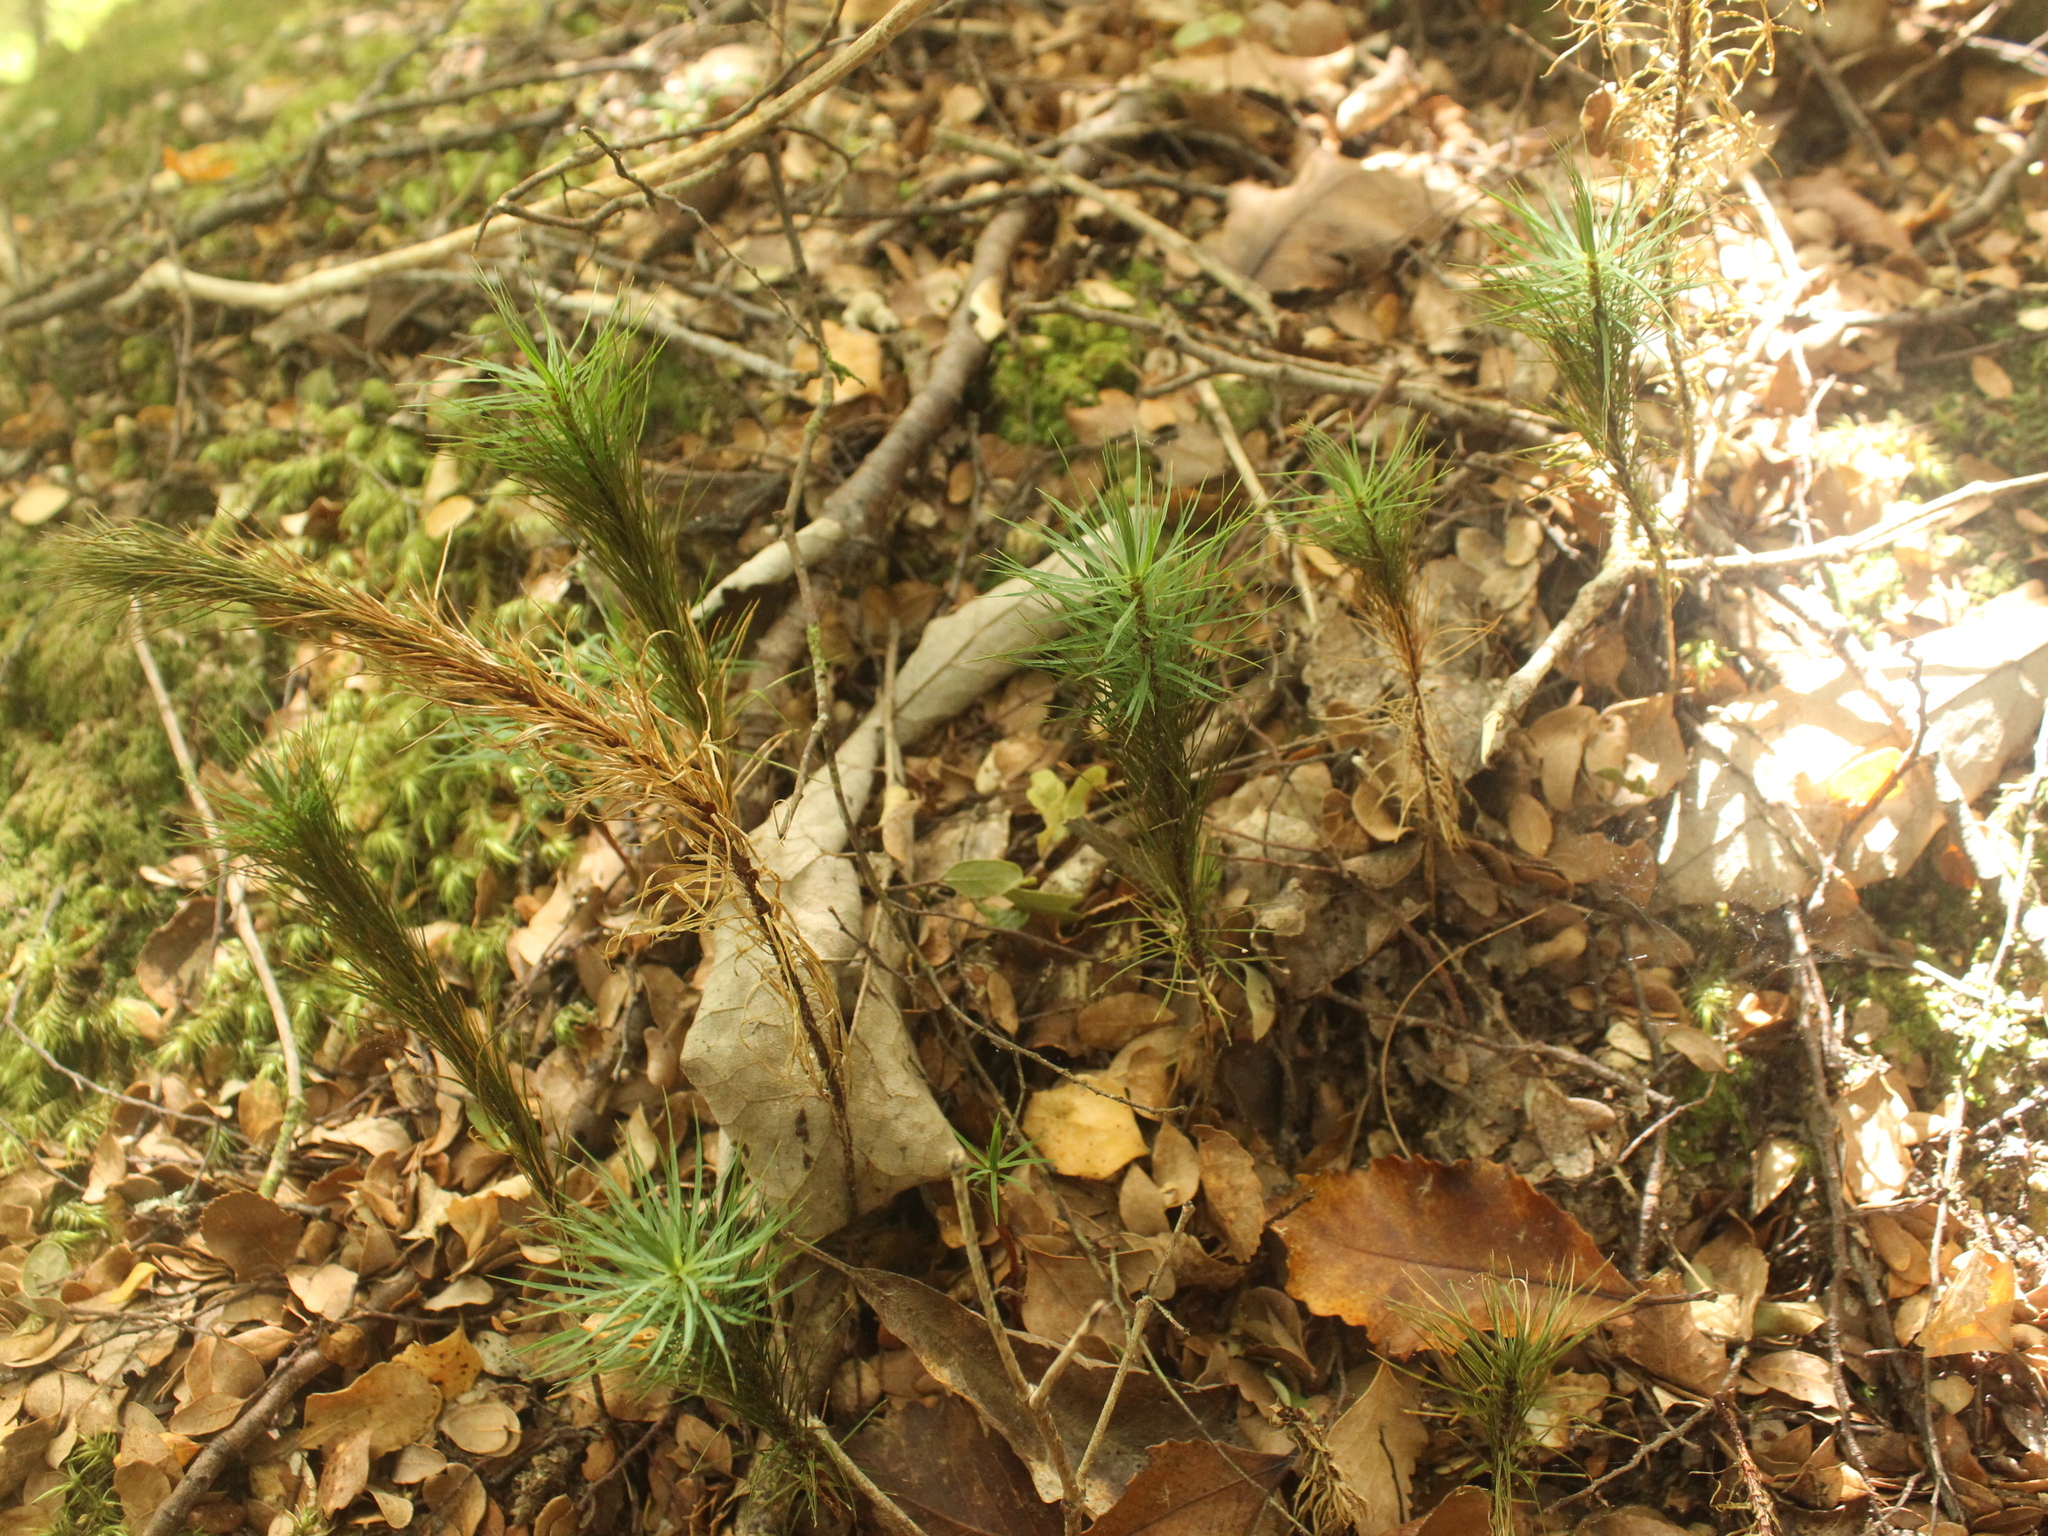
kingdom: Plantae
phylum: Bryophyta
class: Polytrichopsida
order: Polytrichales
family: Polytrichaceae
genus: Dawsonia
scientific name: Dawsonia superba
